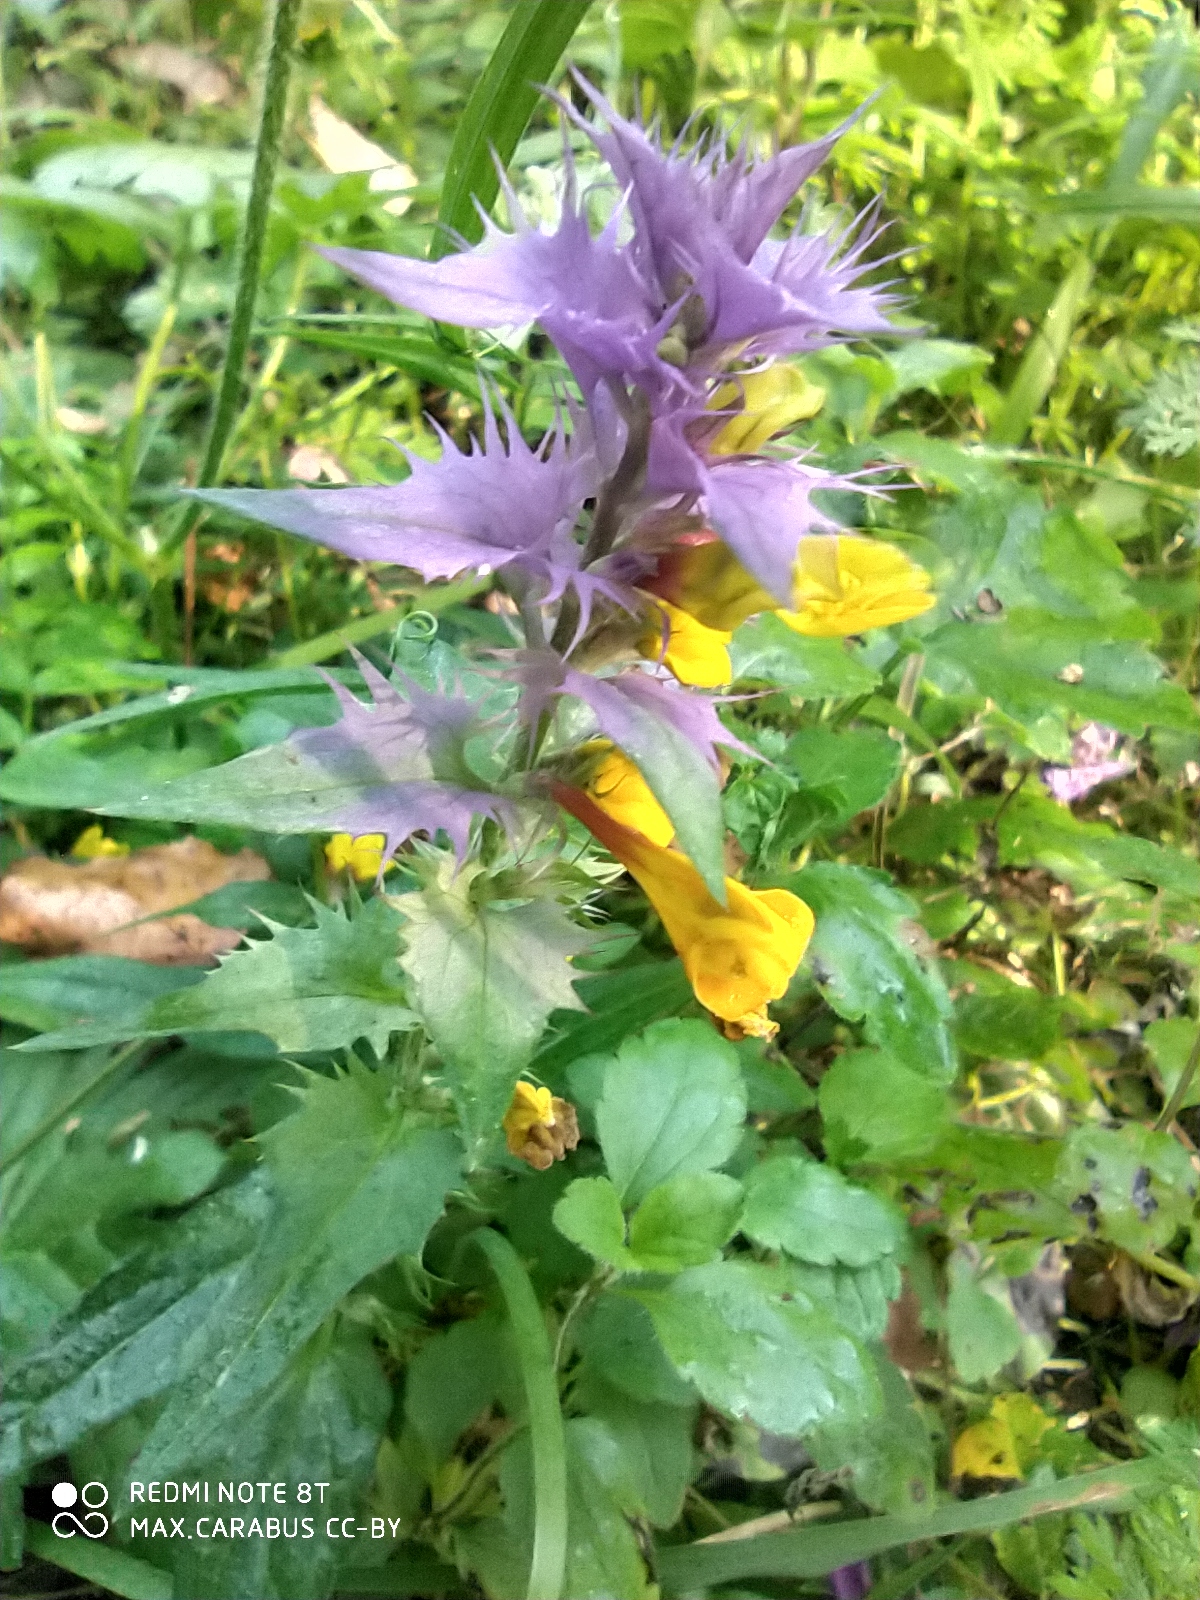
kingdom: Plantae
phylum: Tracheophyta
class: Magnoliopsida
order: Lamiales
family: Orobanchaceae
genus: Melampyrum
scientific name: Melampyrum nemorosum
